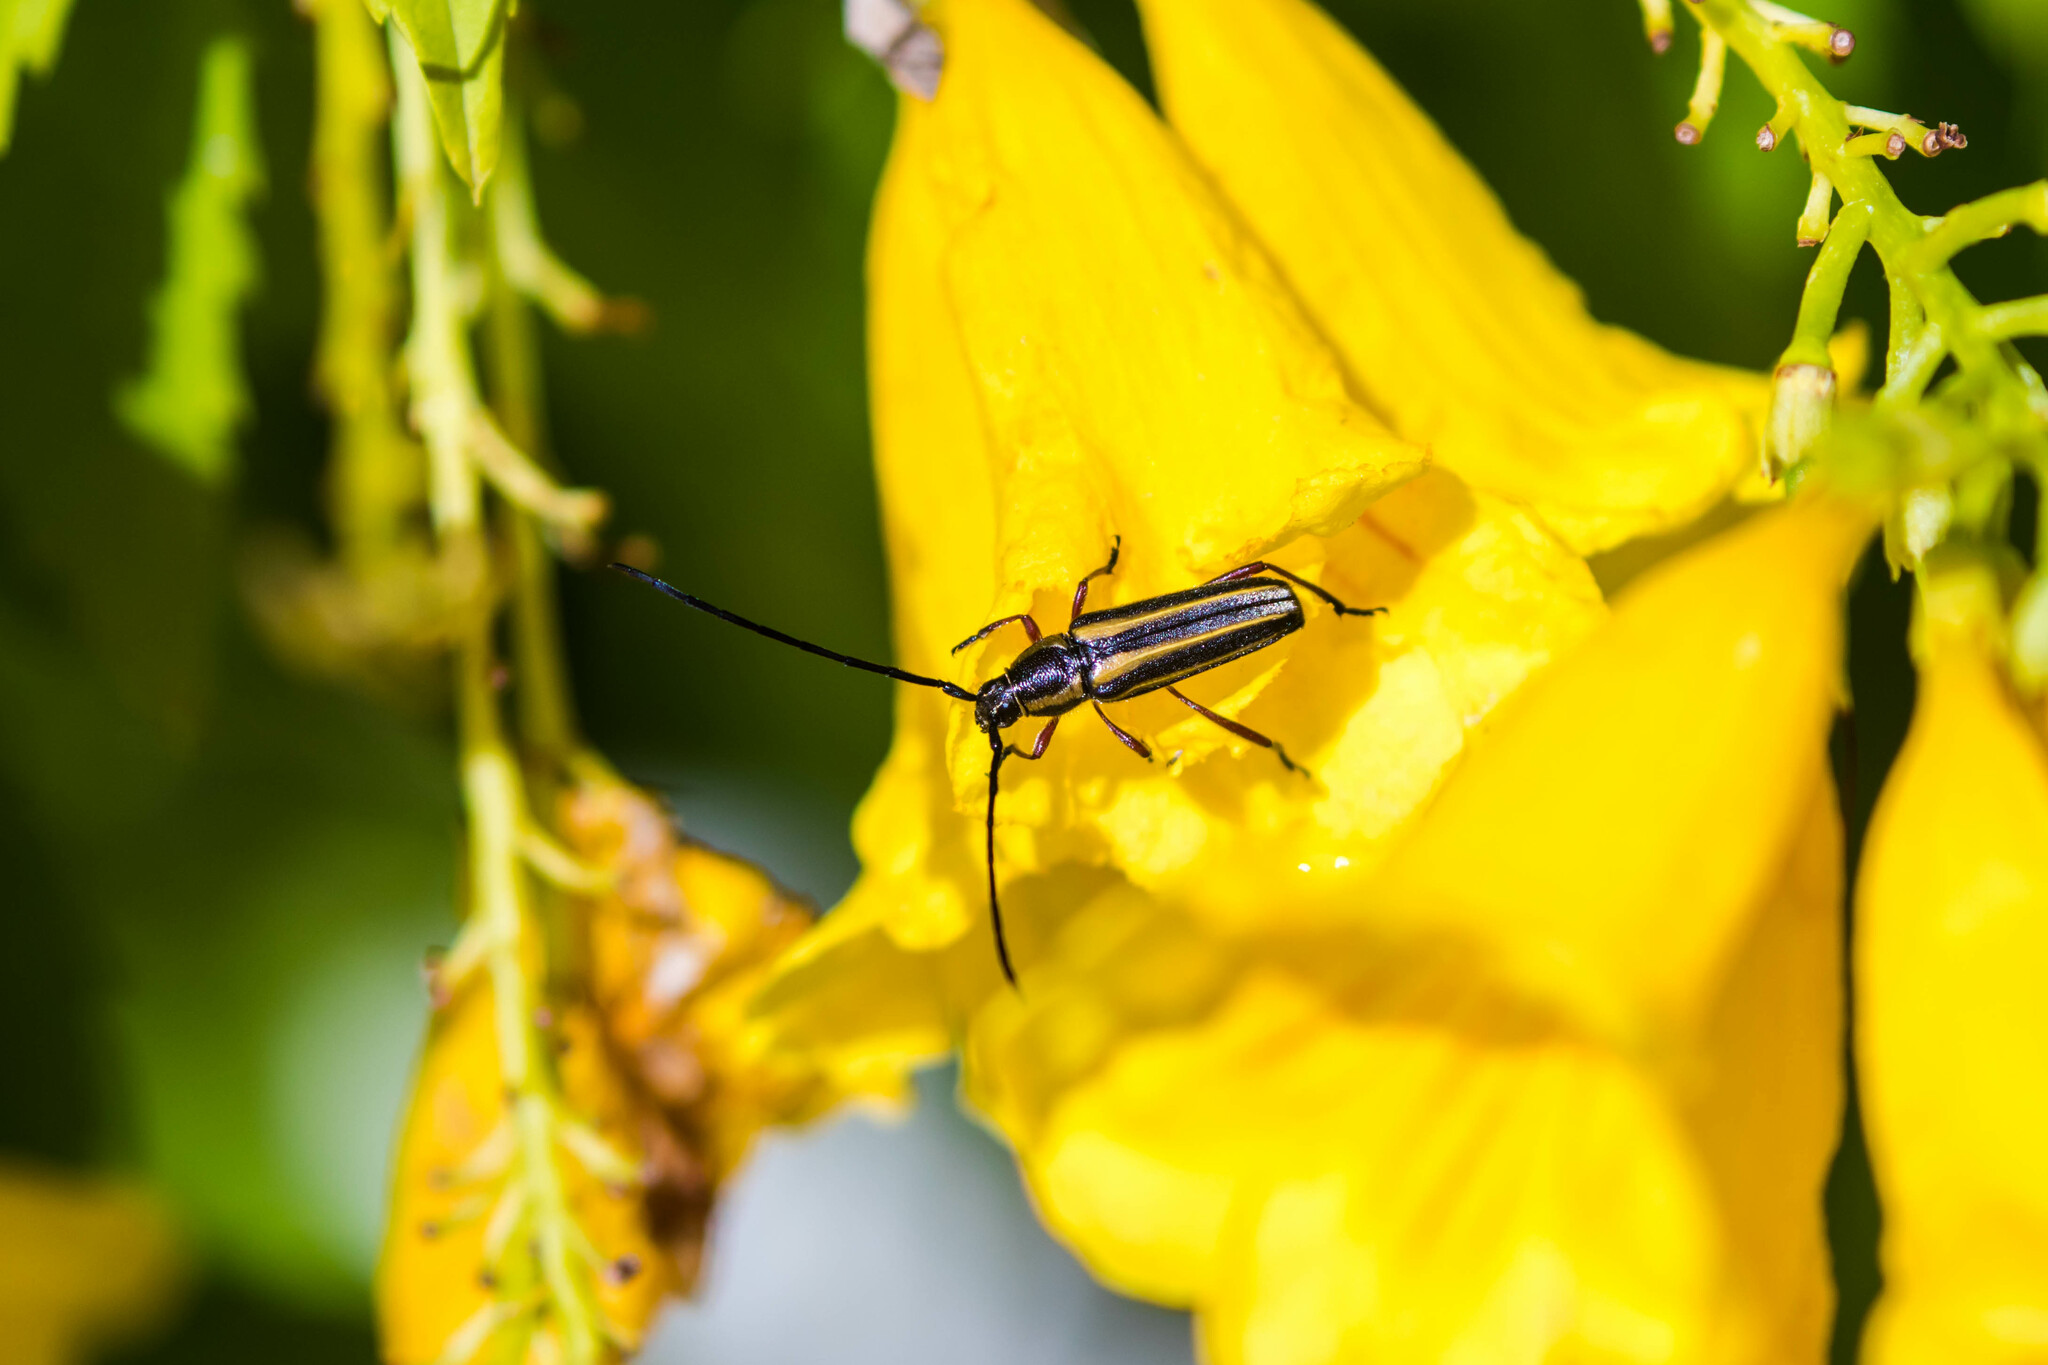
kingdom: Animalia
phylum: Arthropoda
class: Insecta
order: Coleoptera
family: Cerambycidae
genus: Sphaenothecus
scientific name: Sphaenothecus bilineatus
